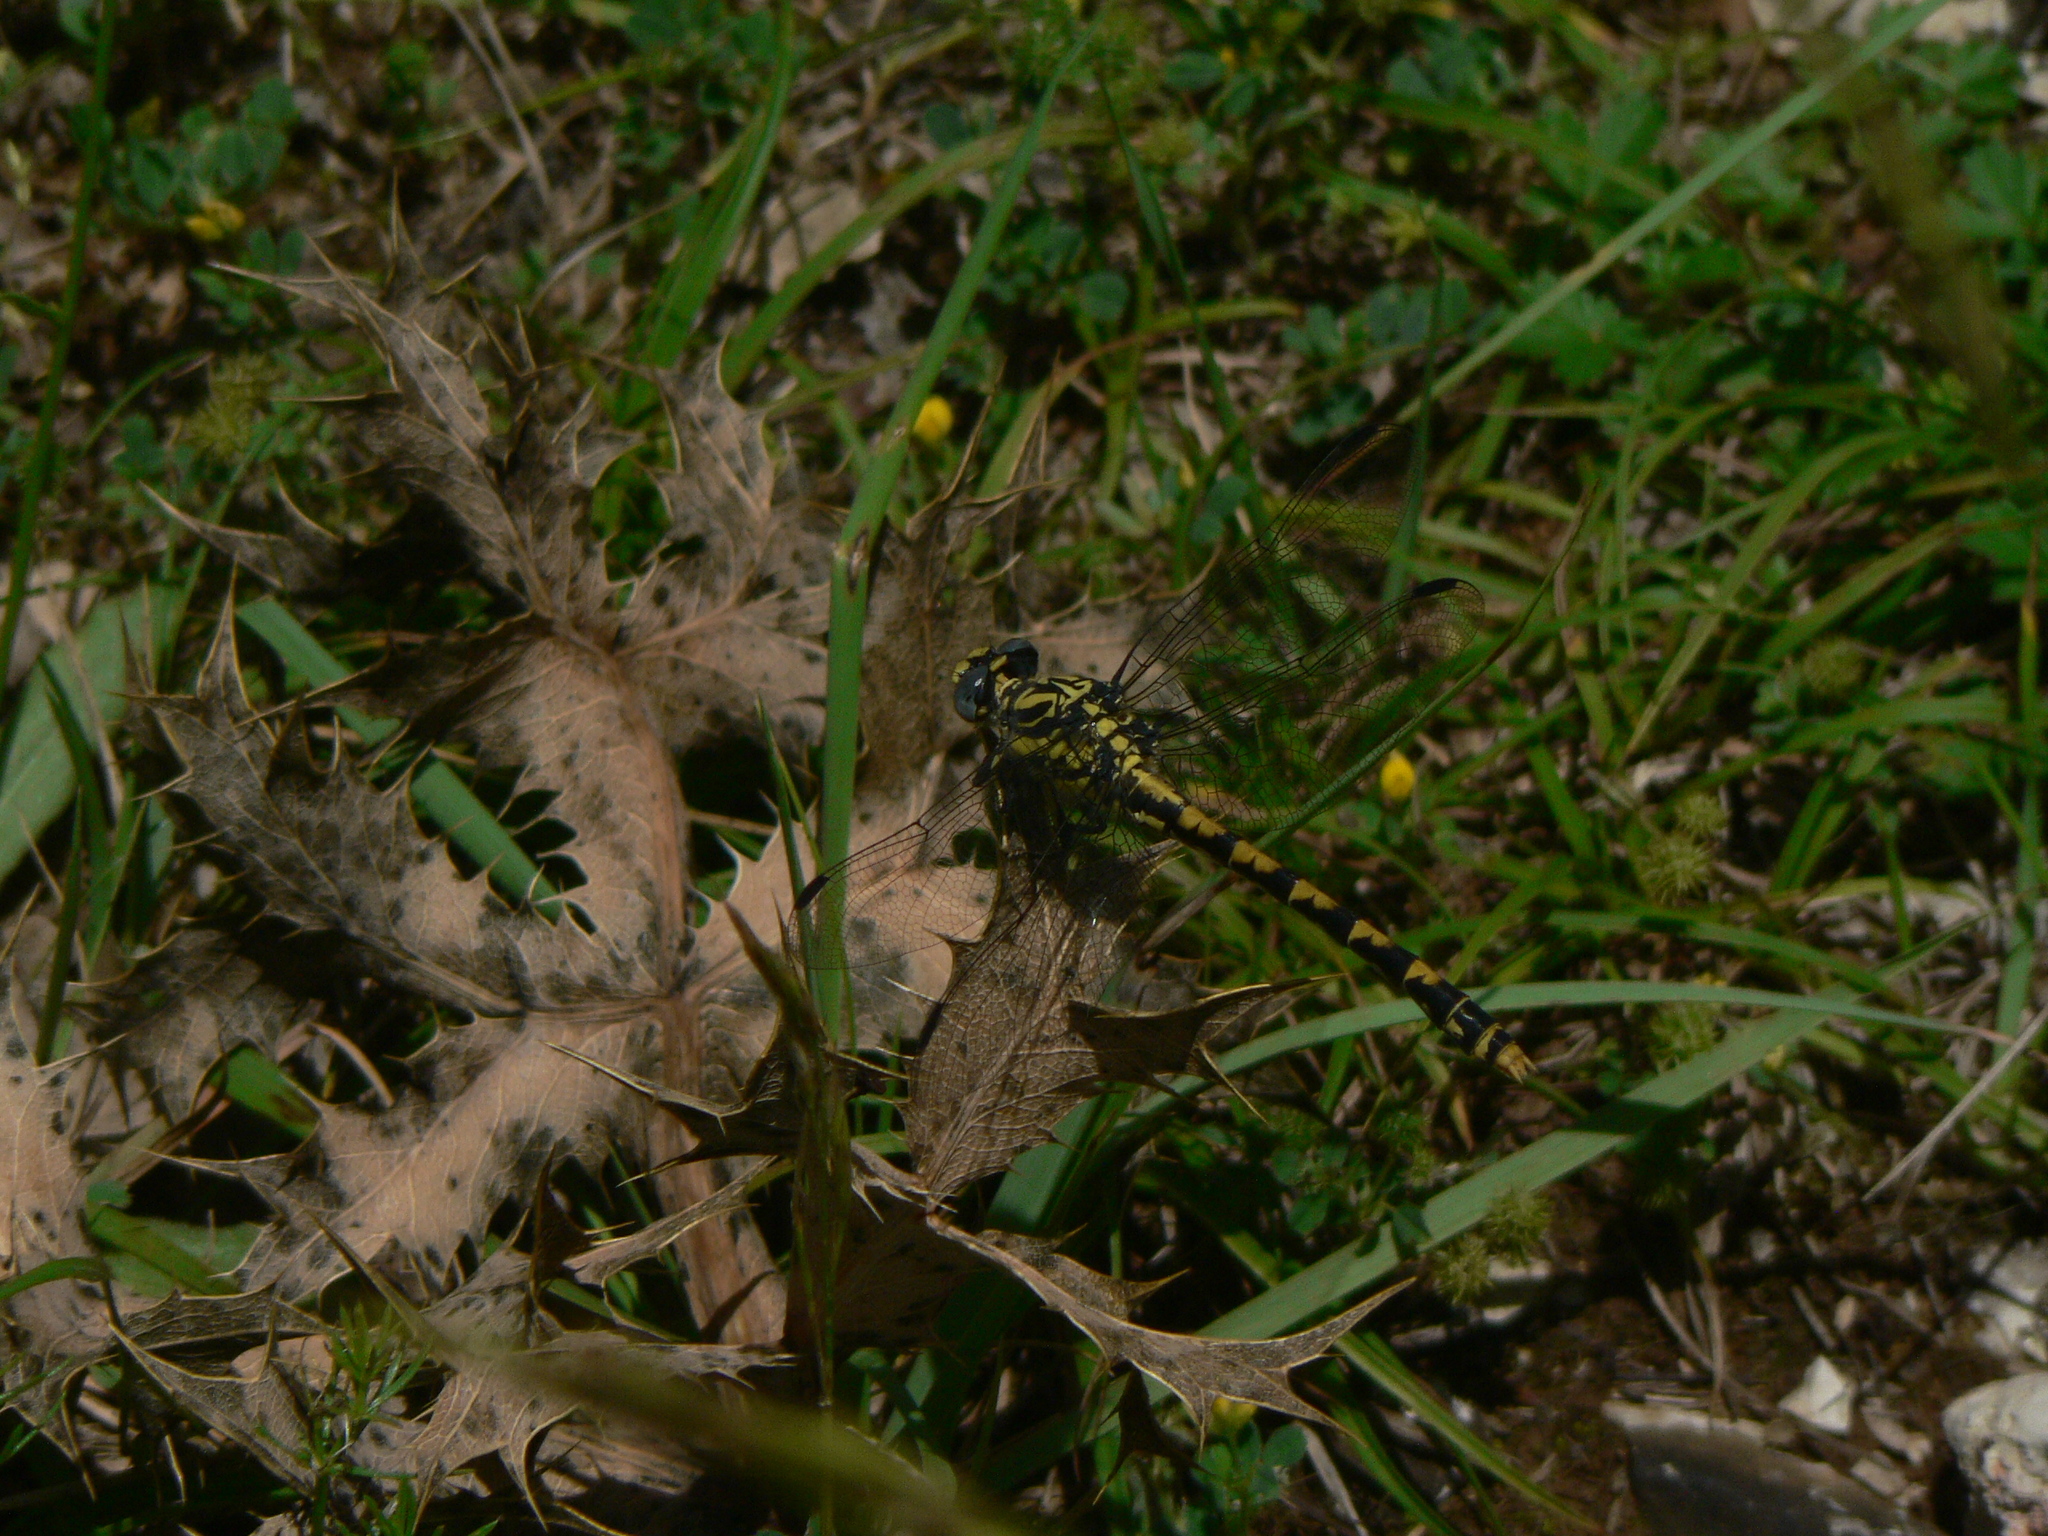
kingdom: Animalia
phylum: Arthropoda
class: Insecta
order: Odonata
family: Gomphidae
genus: Onychogomphus
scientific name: Onychogomphus uncatus
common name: Large pincertail
